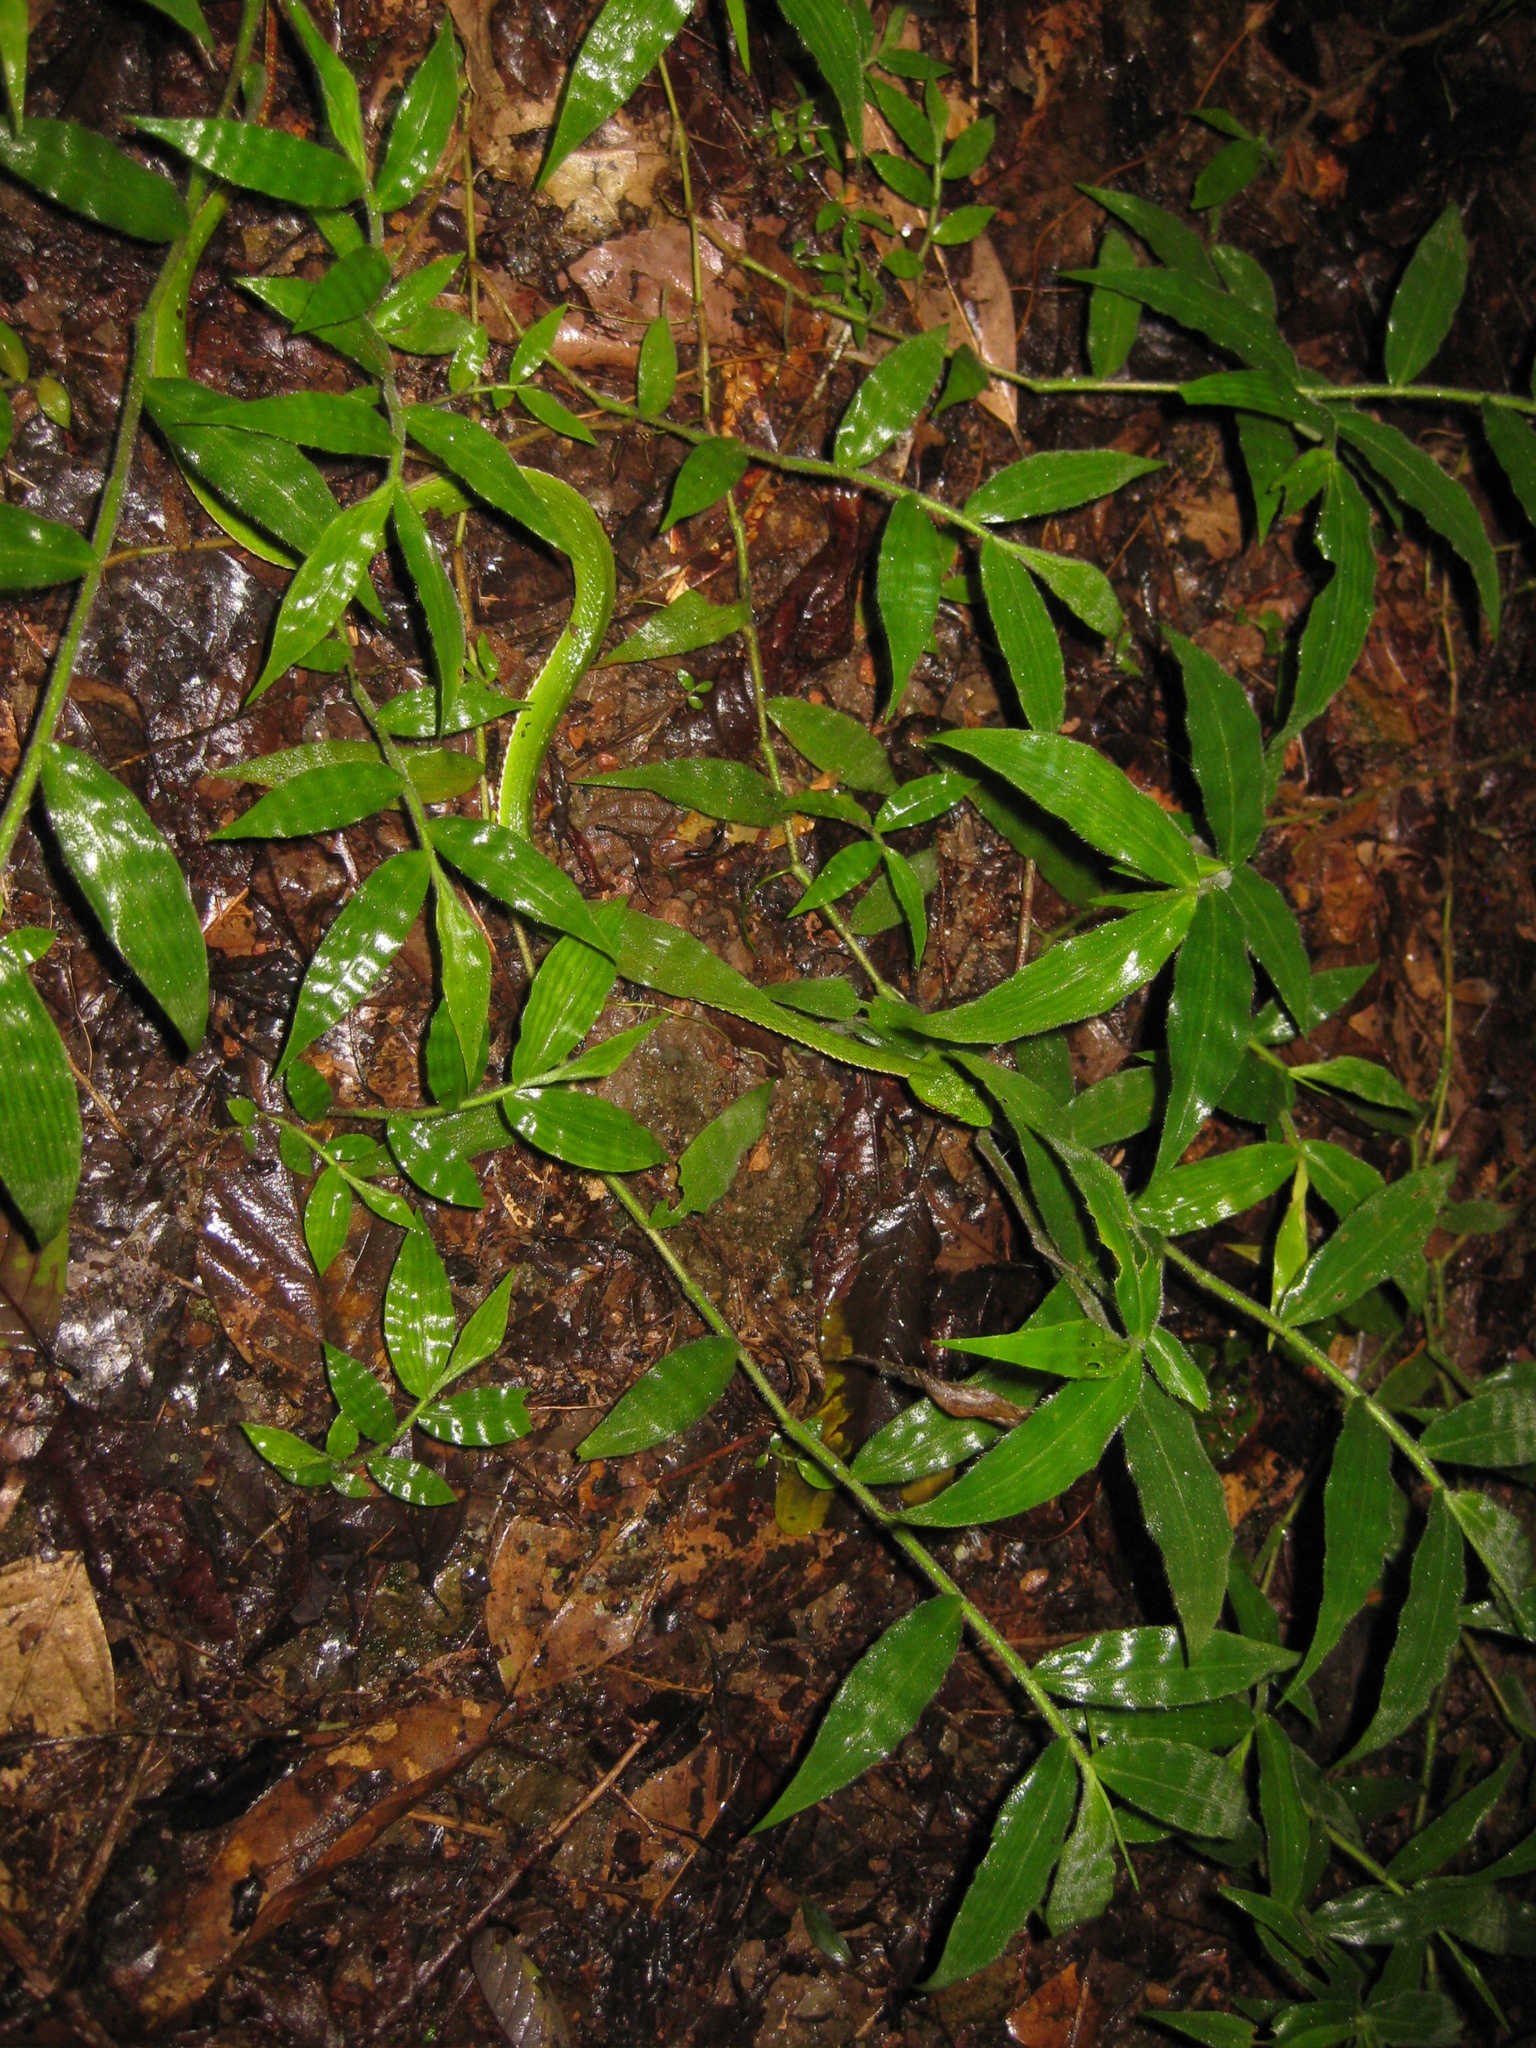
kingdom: Animalia
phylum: Chordata
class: Squamata
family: Viperidae
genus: Trimeresurus
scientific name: Trimeresurus popeiorum
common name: Pope's bamboo pit viper
